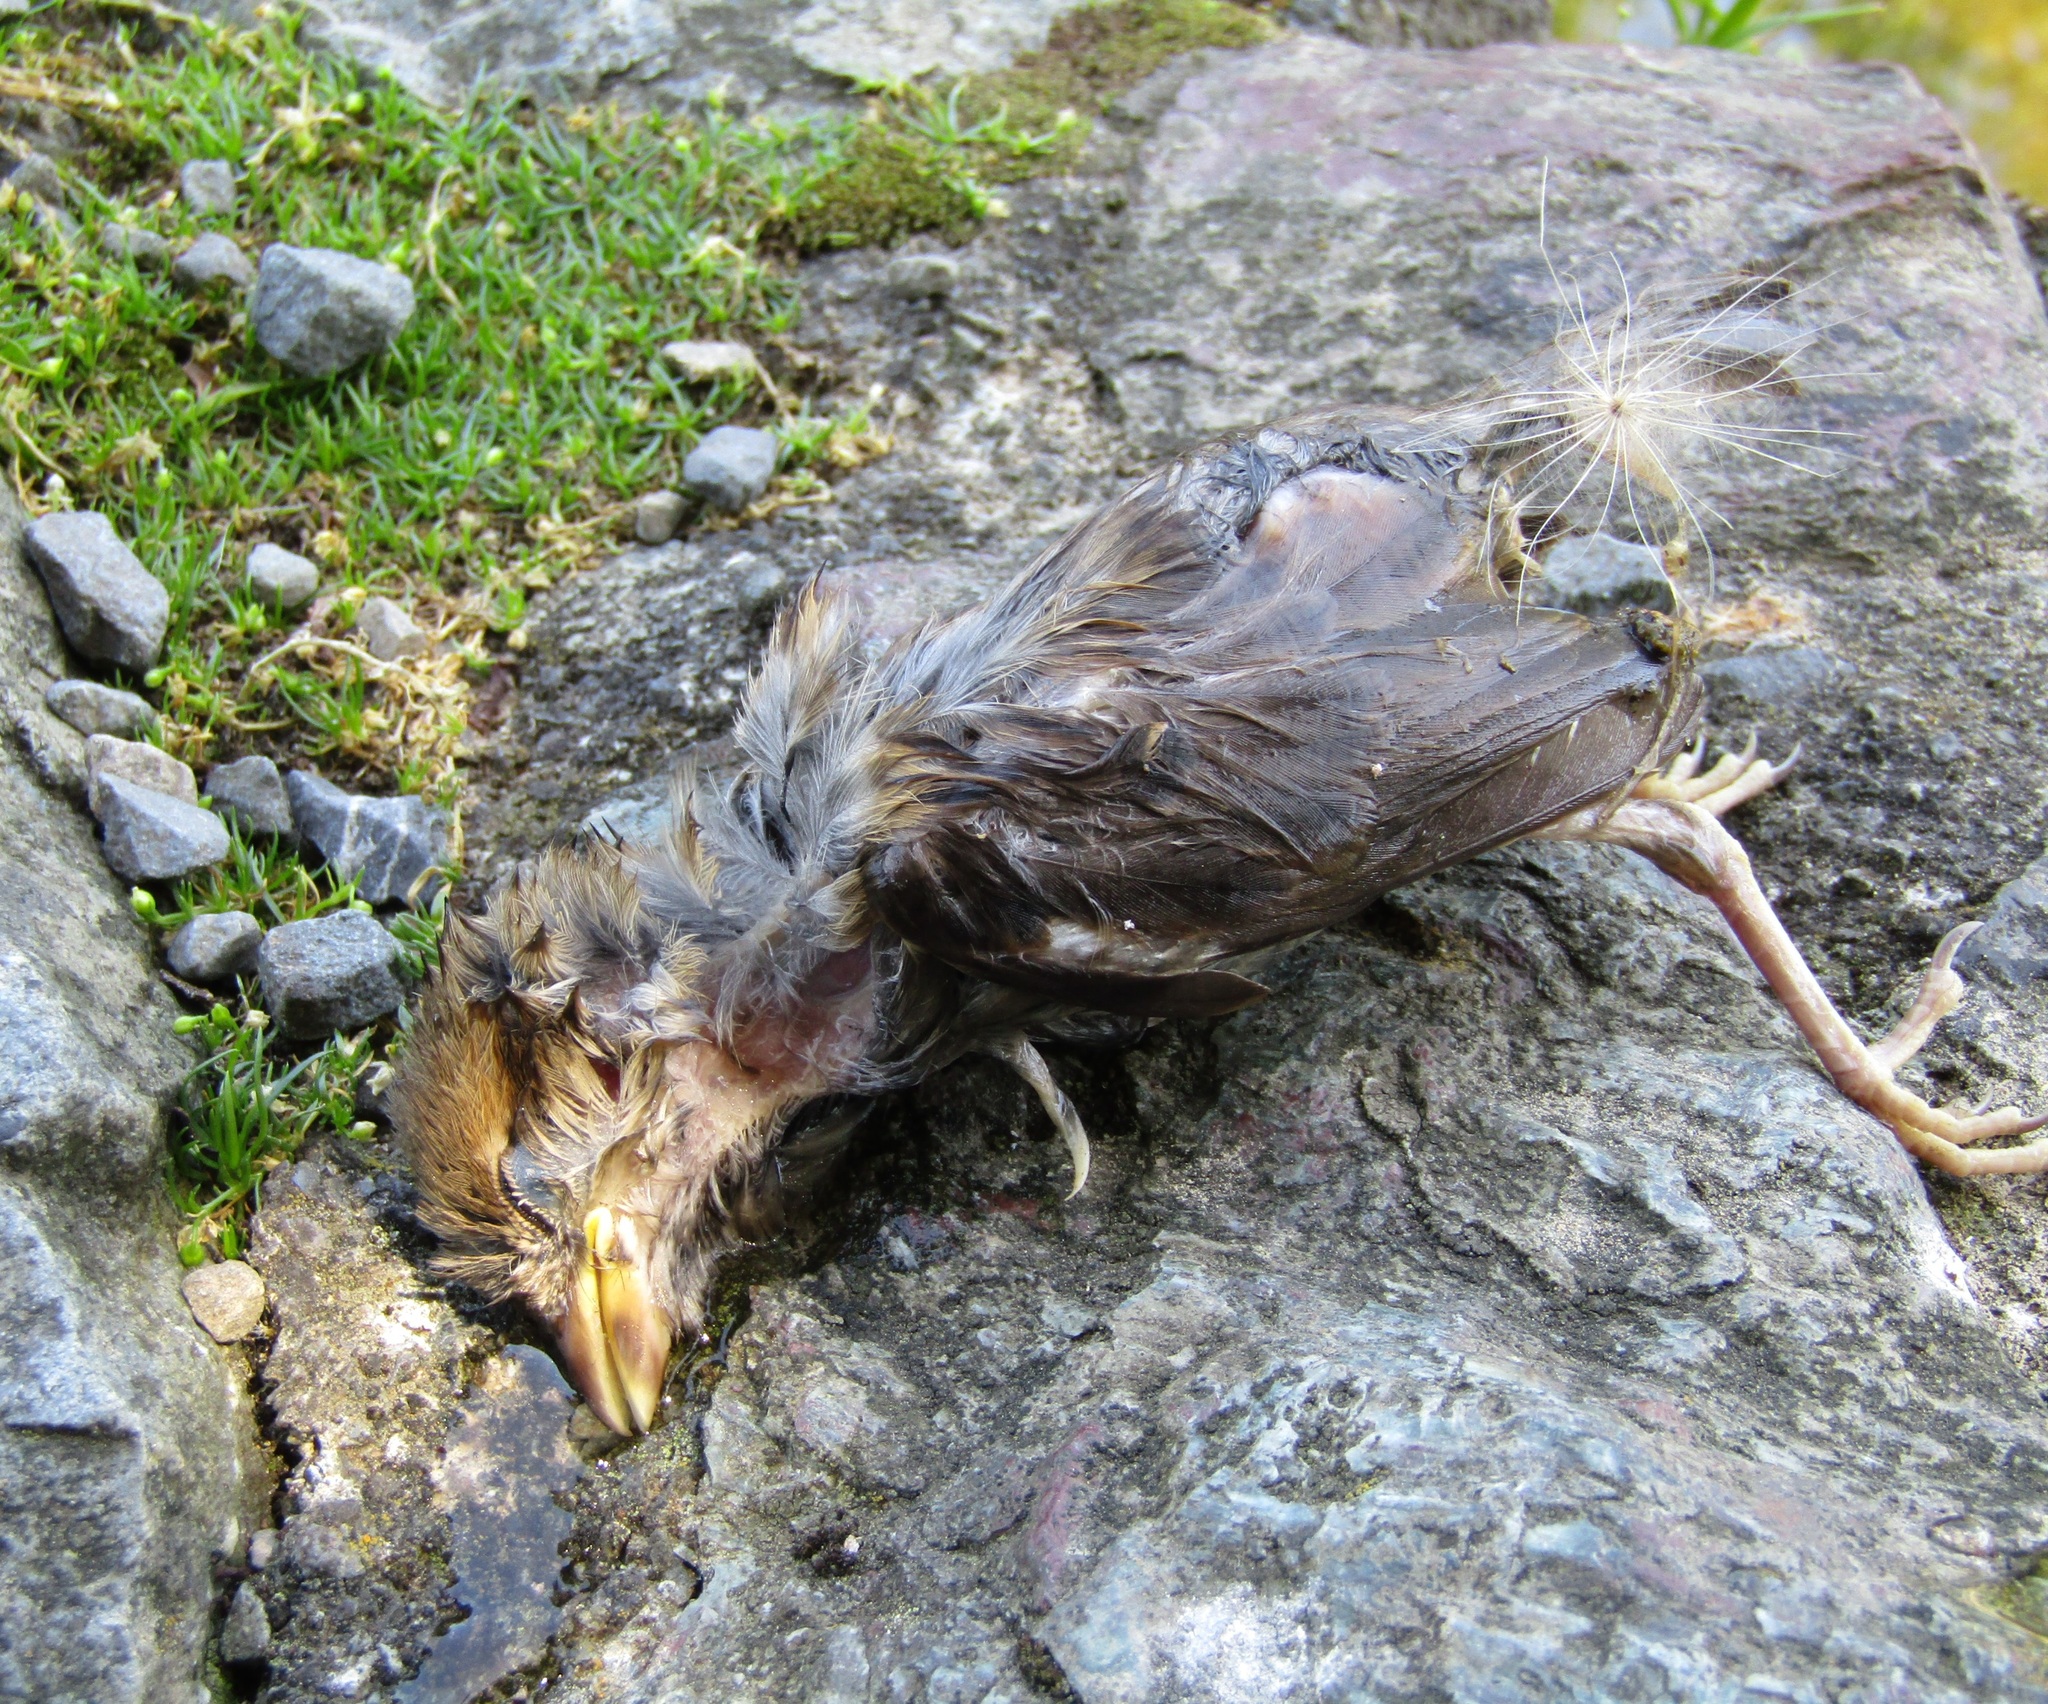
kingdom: Animalia
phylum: Chordata
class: Aves
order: Passeriformes
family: Passeridae
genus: Passer
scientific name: Passer domesticus
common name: House sparrow
